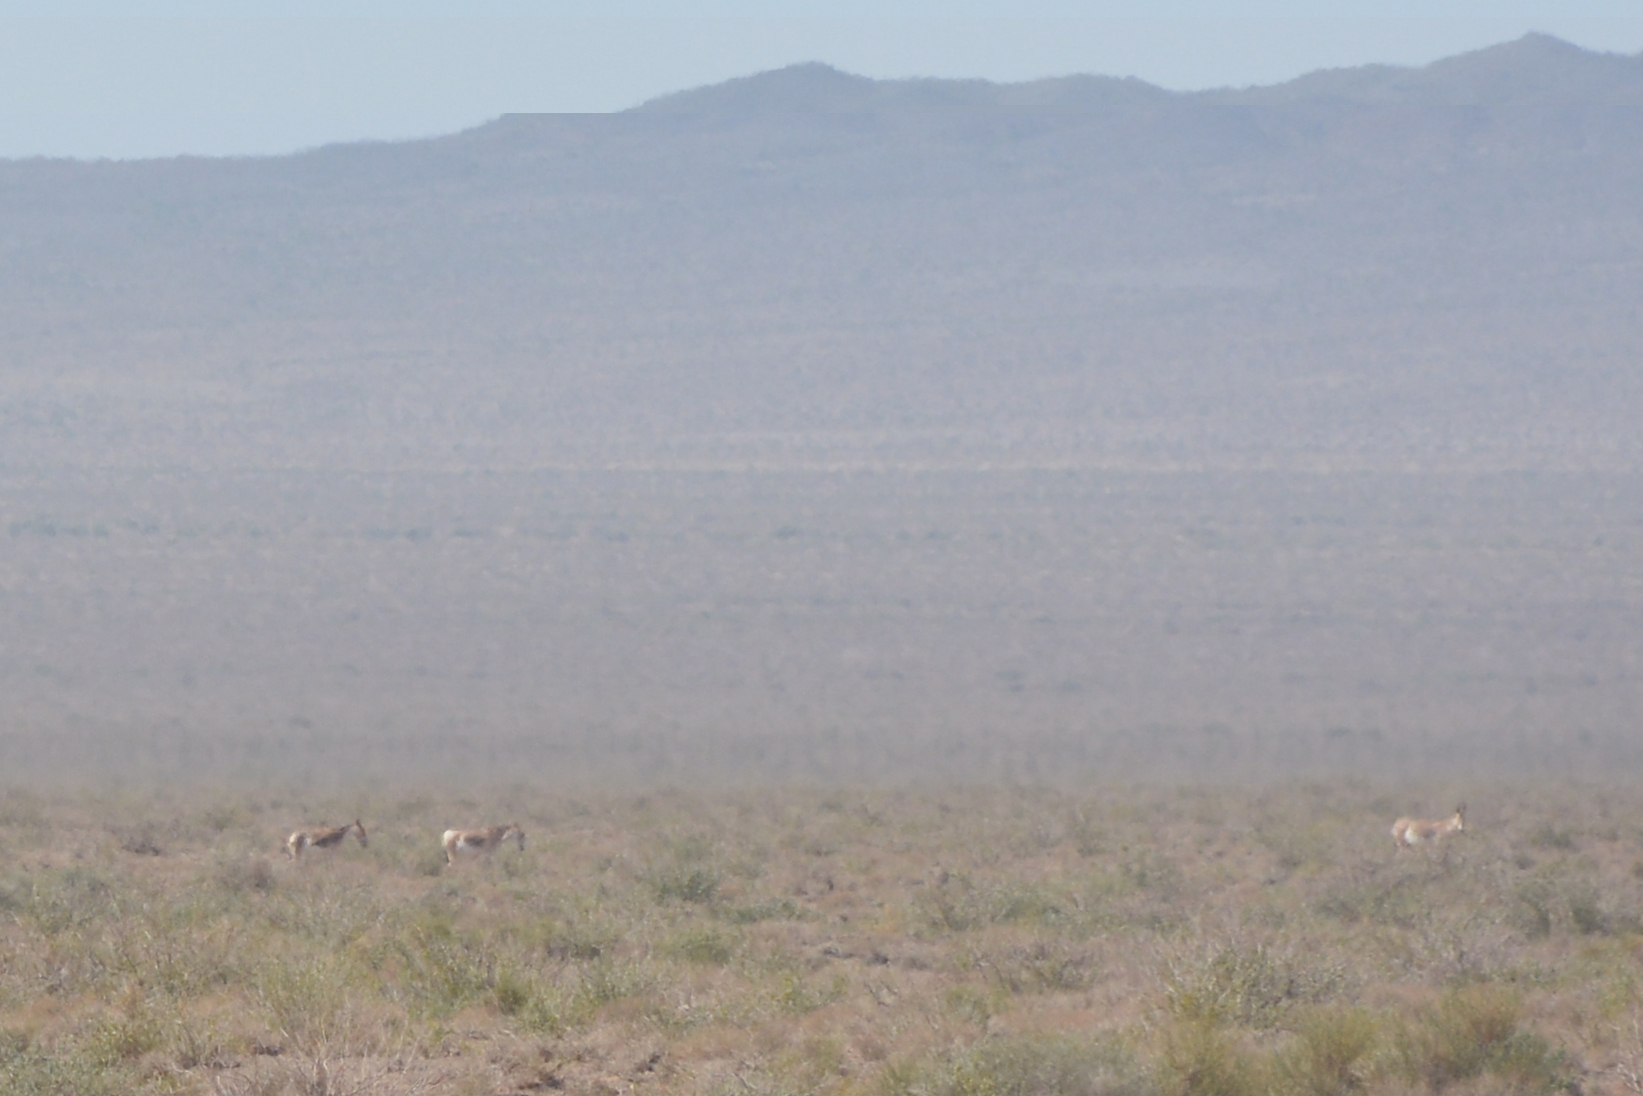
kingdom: Animalia
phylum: Chordata
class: Mammalia
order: Perissodactyla
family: Equidae
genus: Equus
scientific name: Equus hemionus
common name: Onager
